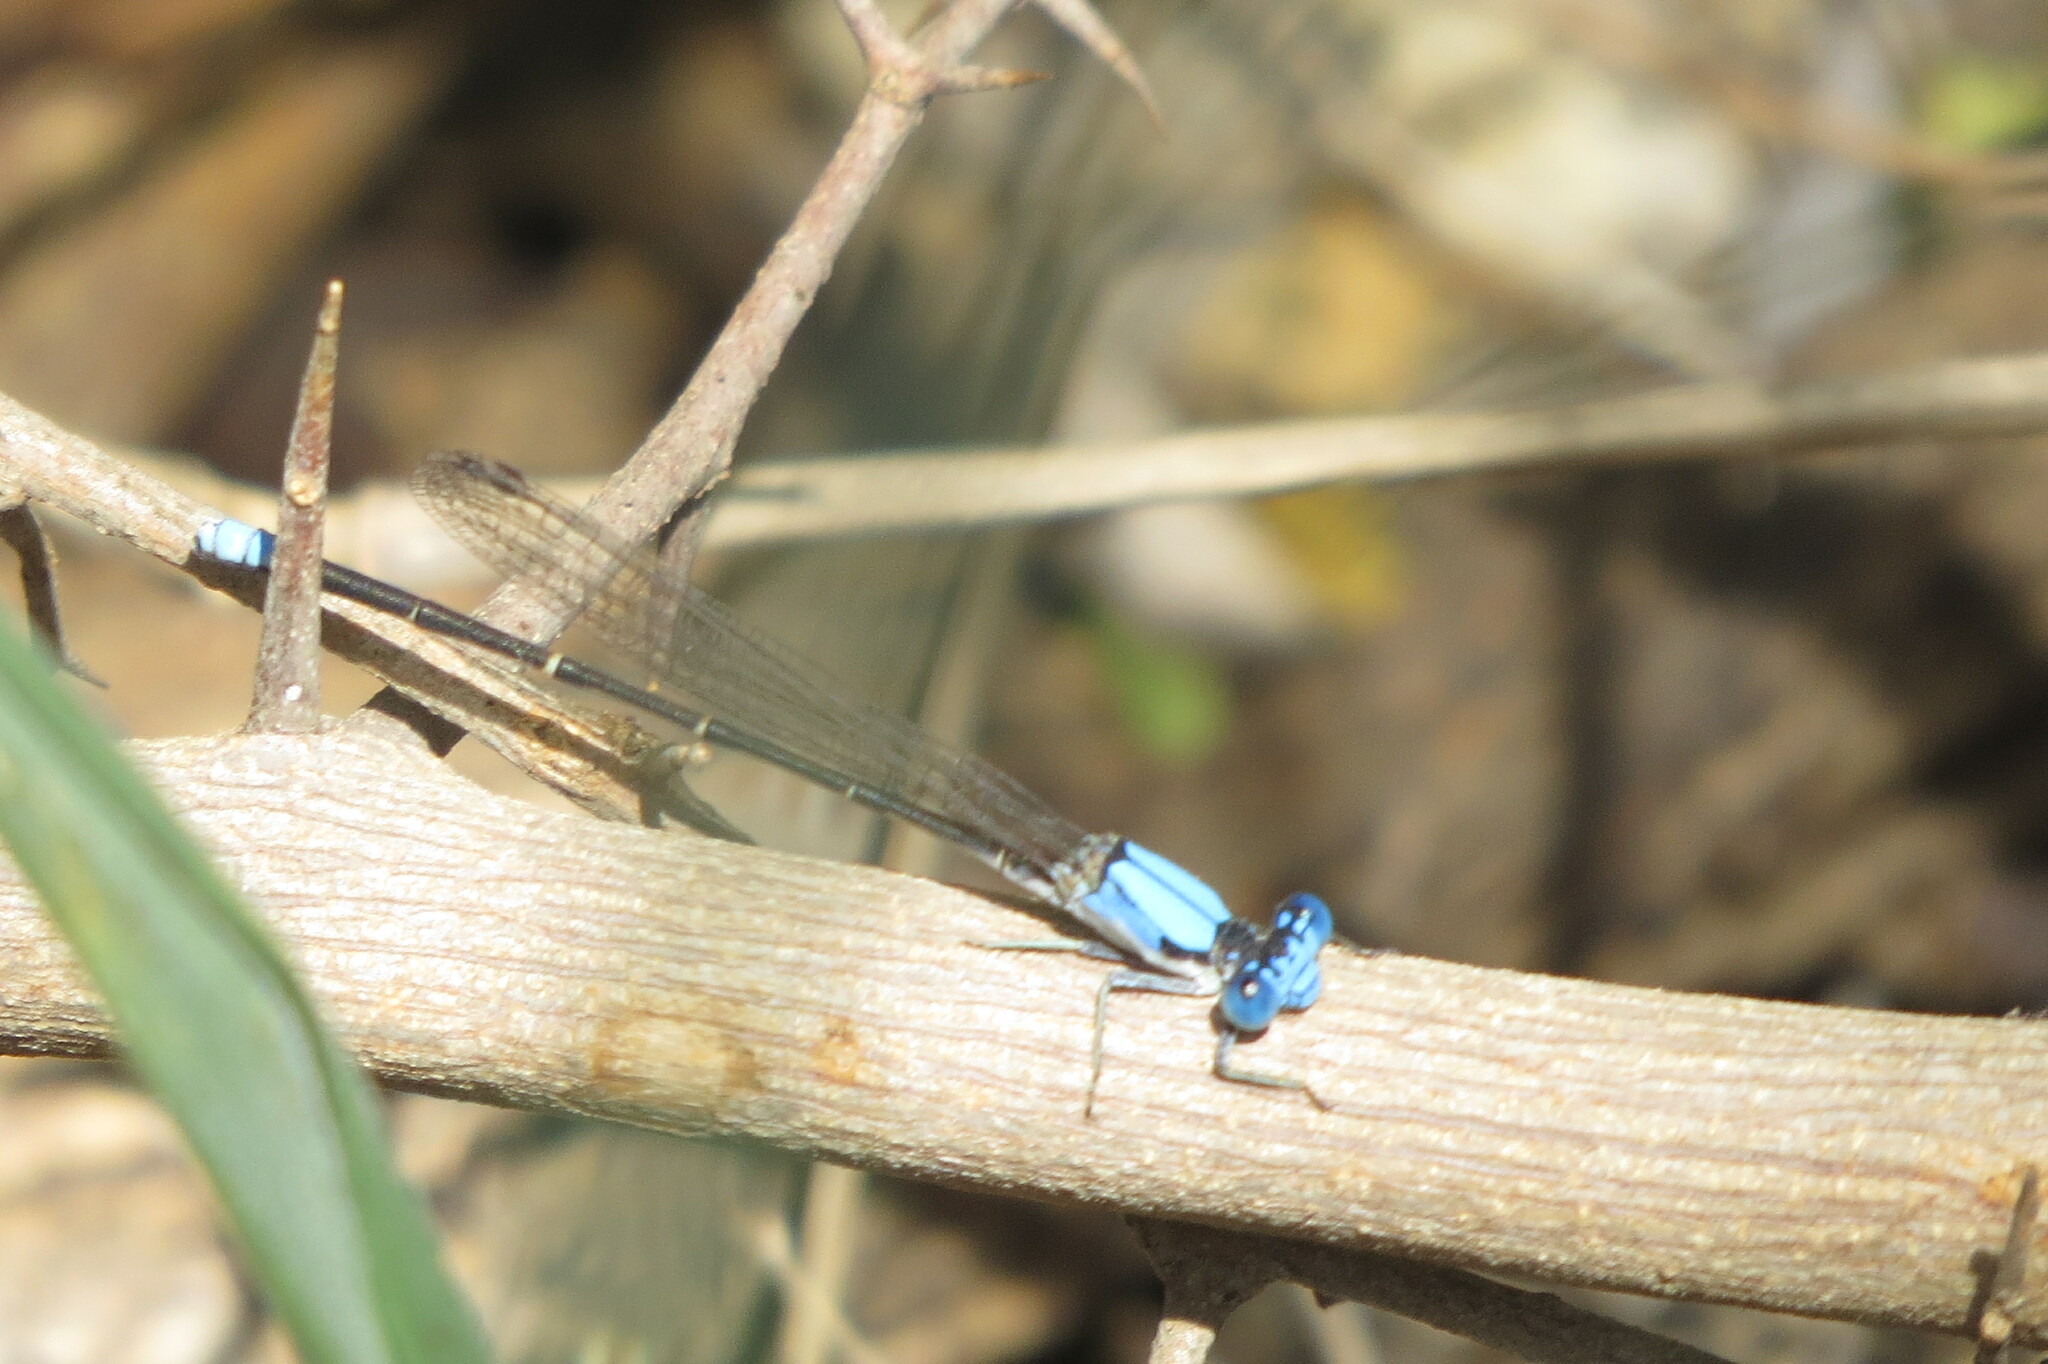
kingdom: Animalia
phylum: Arthropoda
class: Insecta
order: Odonata
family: Coenagrionidae
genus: Argia
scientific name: Argia apicalis
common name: Blue-fronted dancer
